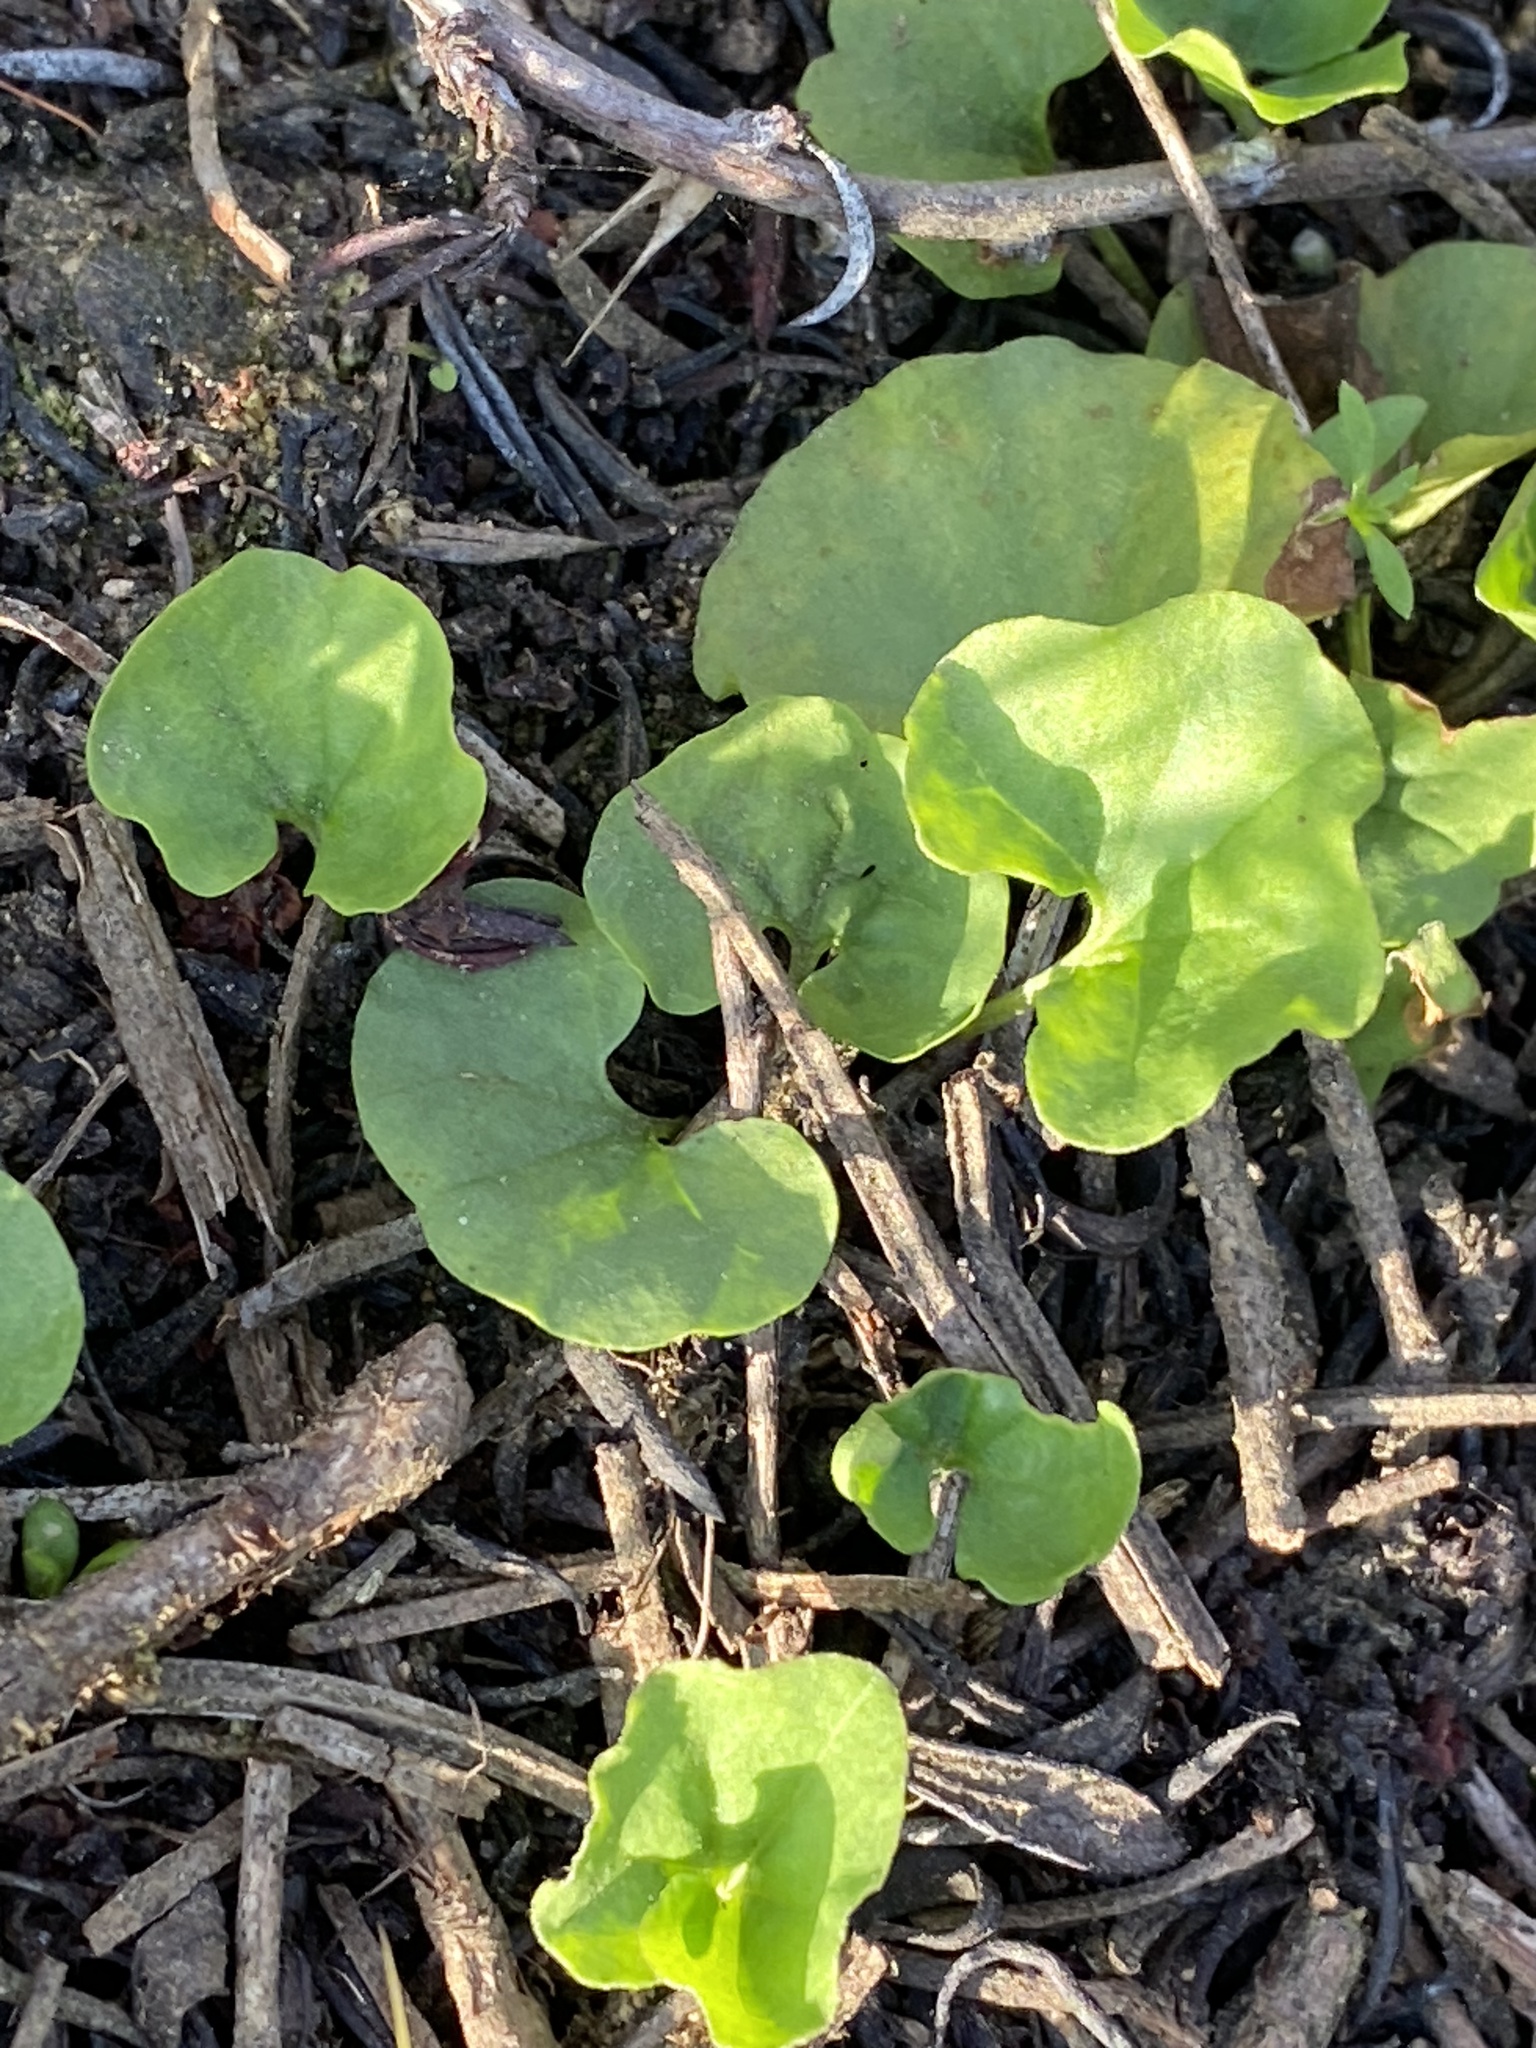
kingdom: Plantae
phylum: Tracheophyta
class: Magnoliopsida
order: Solanales
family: Convolvulaceae
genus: Dichondra
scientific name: Dichondra occidentalis
